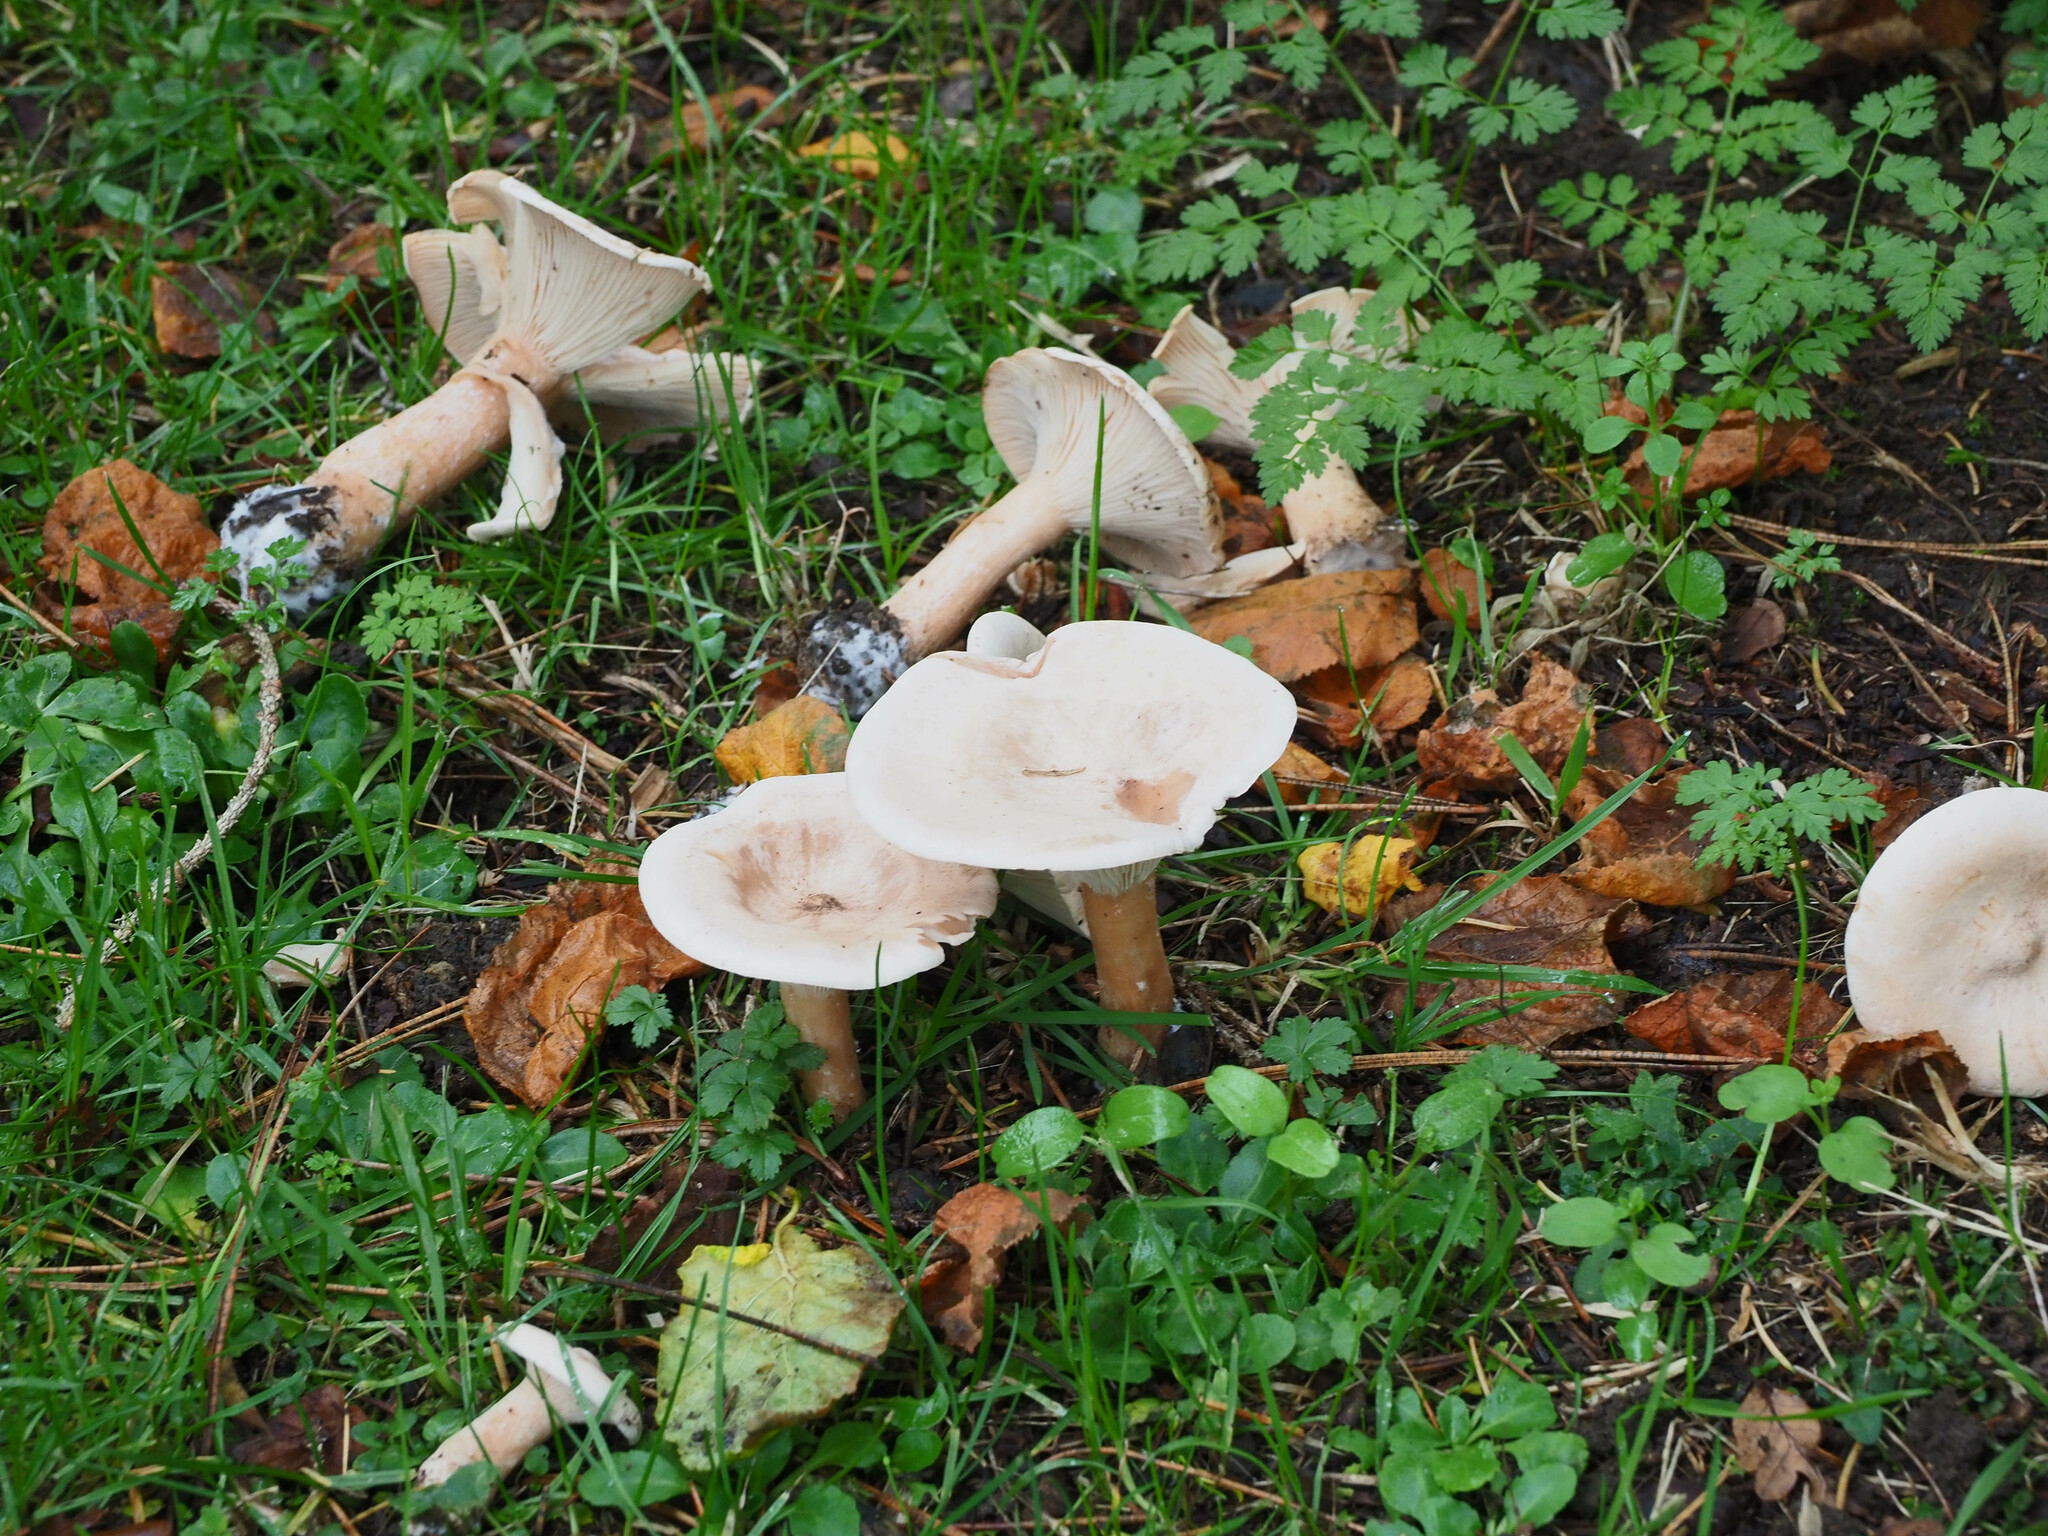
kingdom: Fungi
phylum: Basidiomycota
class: Agaricomycetes
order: Agaricales
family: Tricholomataceae
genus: Infundibulicybe
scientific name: Infundibulicybe geotropa
